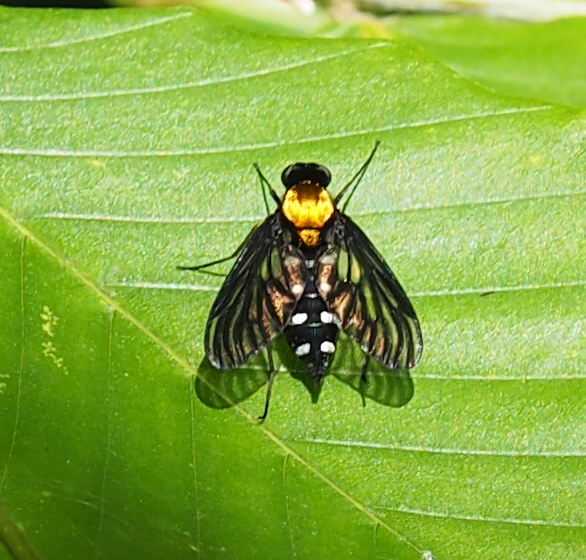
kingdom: Animalia
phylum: Arthropoda
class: Insecta
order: Diptera
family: Rhagionidae
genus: Chrysopilus
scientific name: Chrysopilus thoracicus
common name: Golden-backed snipe fly
